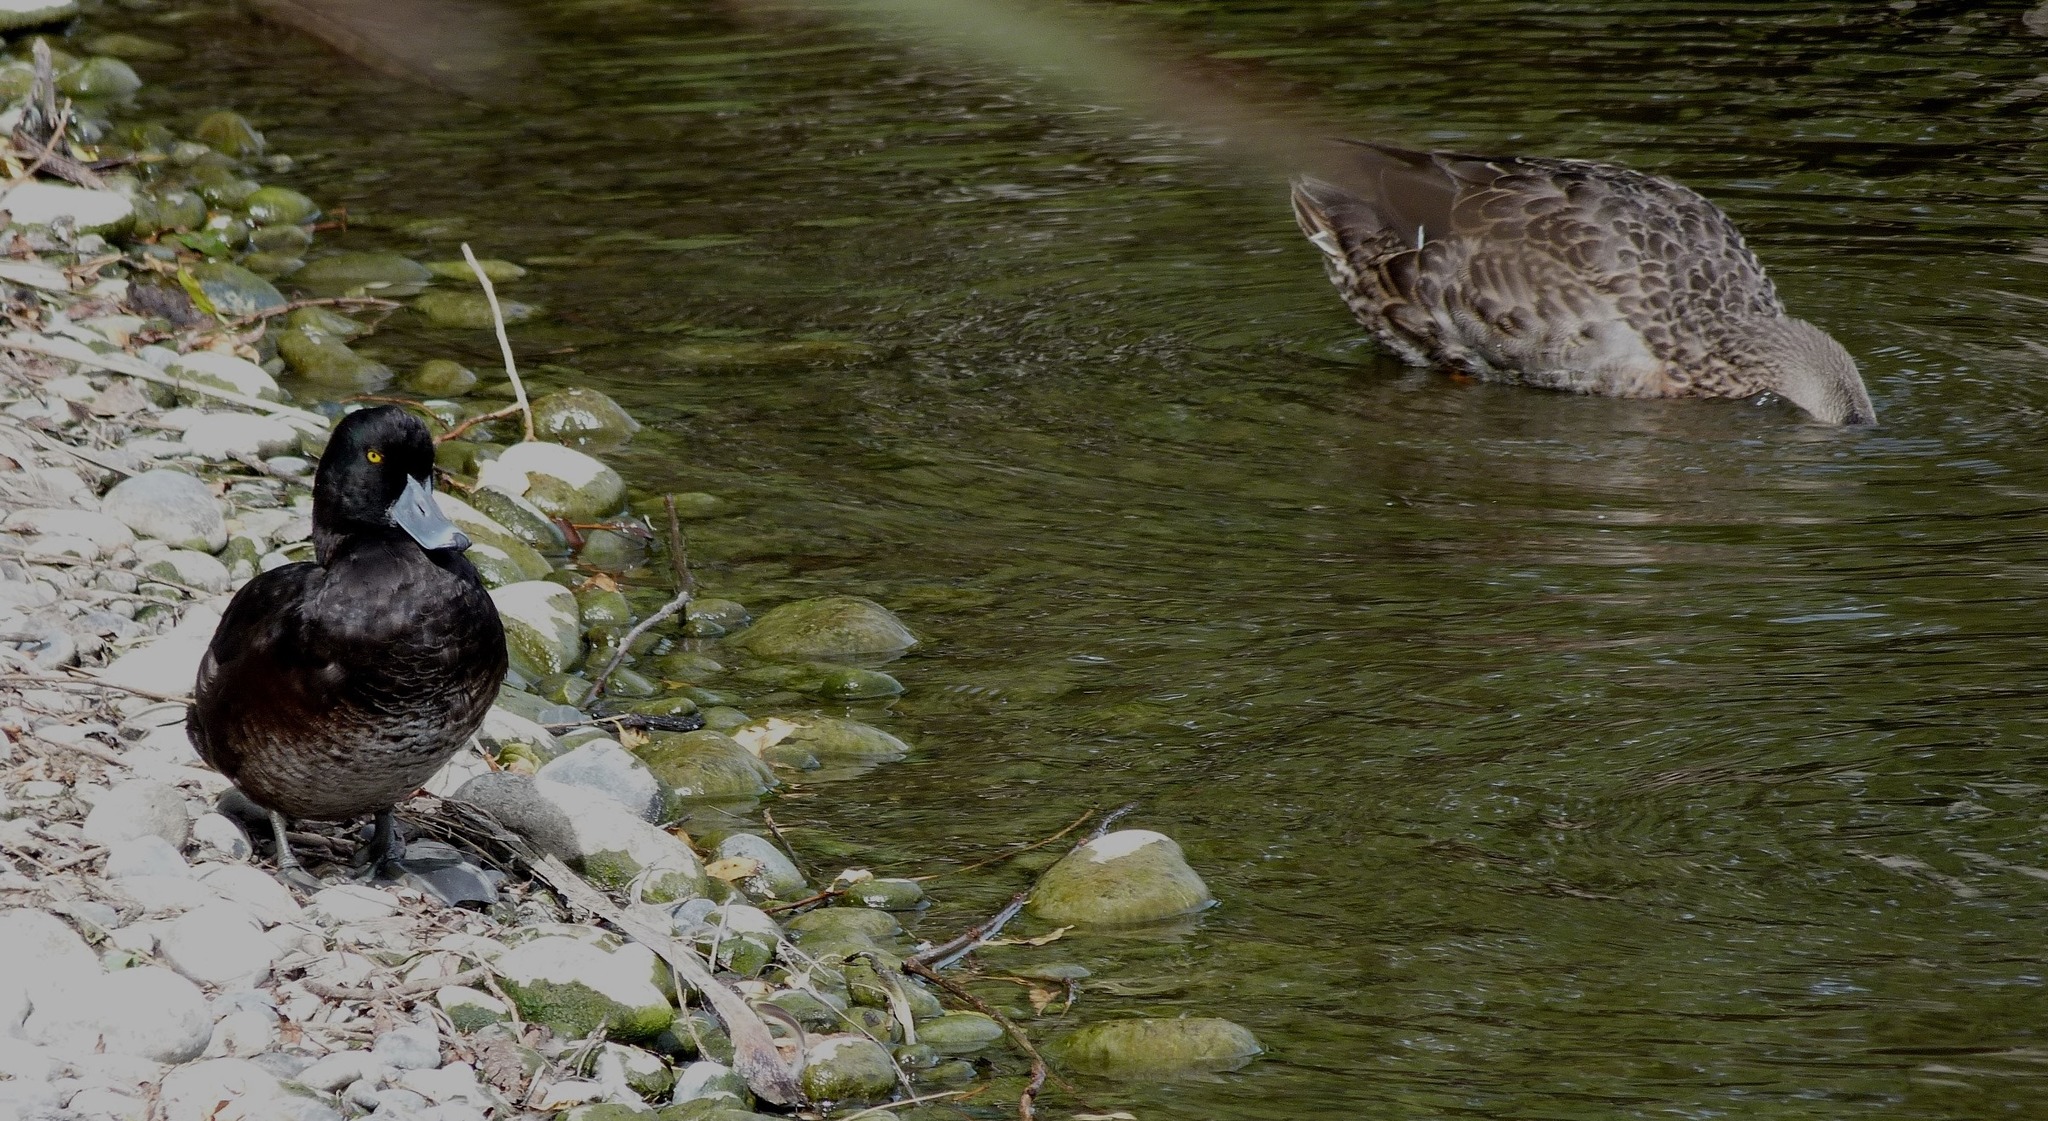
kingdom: Animalia
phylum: Chordata
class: Aves
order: Anseriformes
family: Anatidae
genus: Aythya
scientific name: Aythya novaeseelandiae
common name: New zealand scaup
